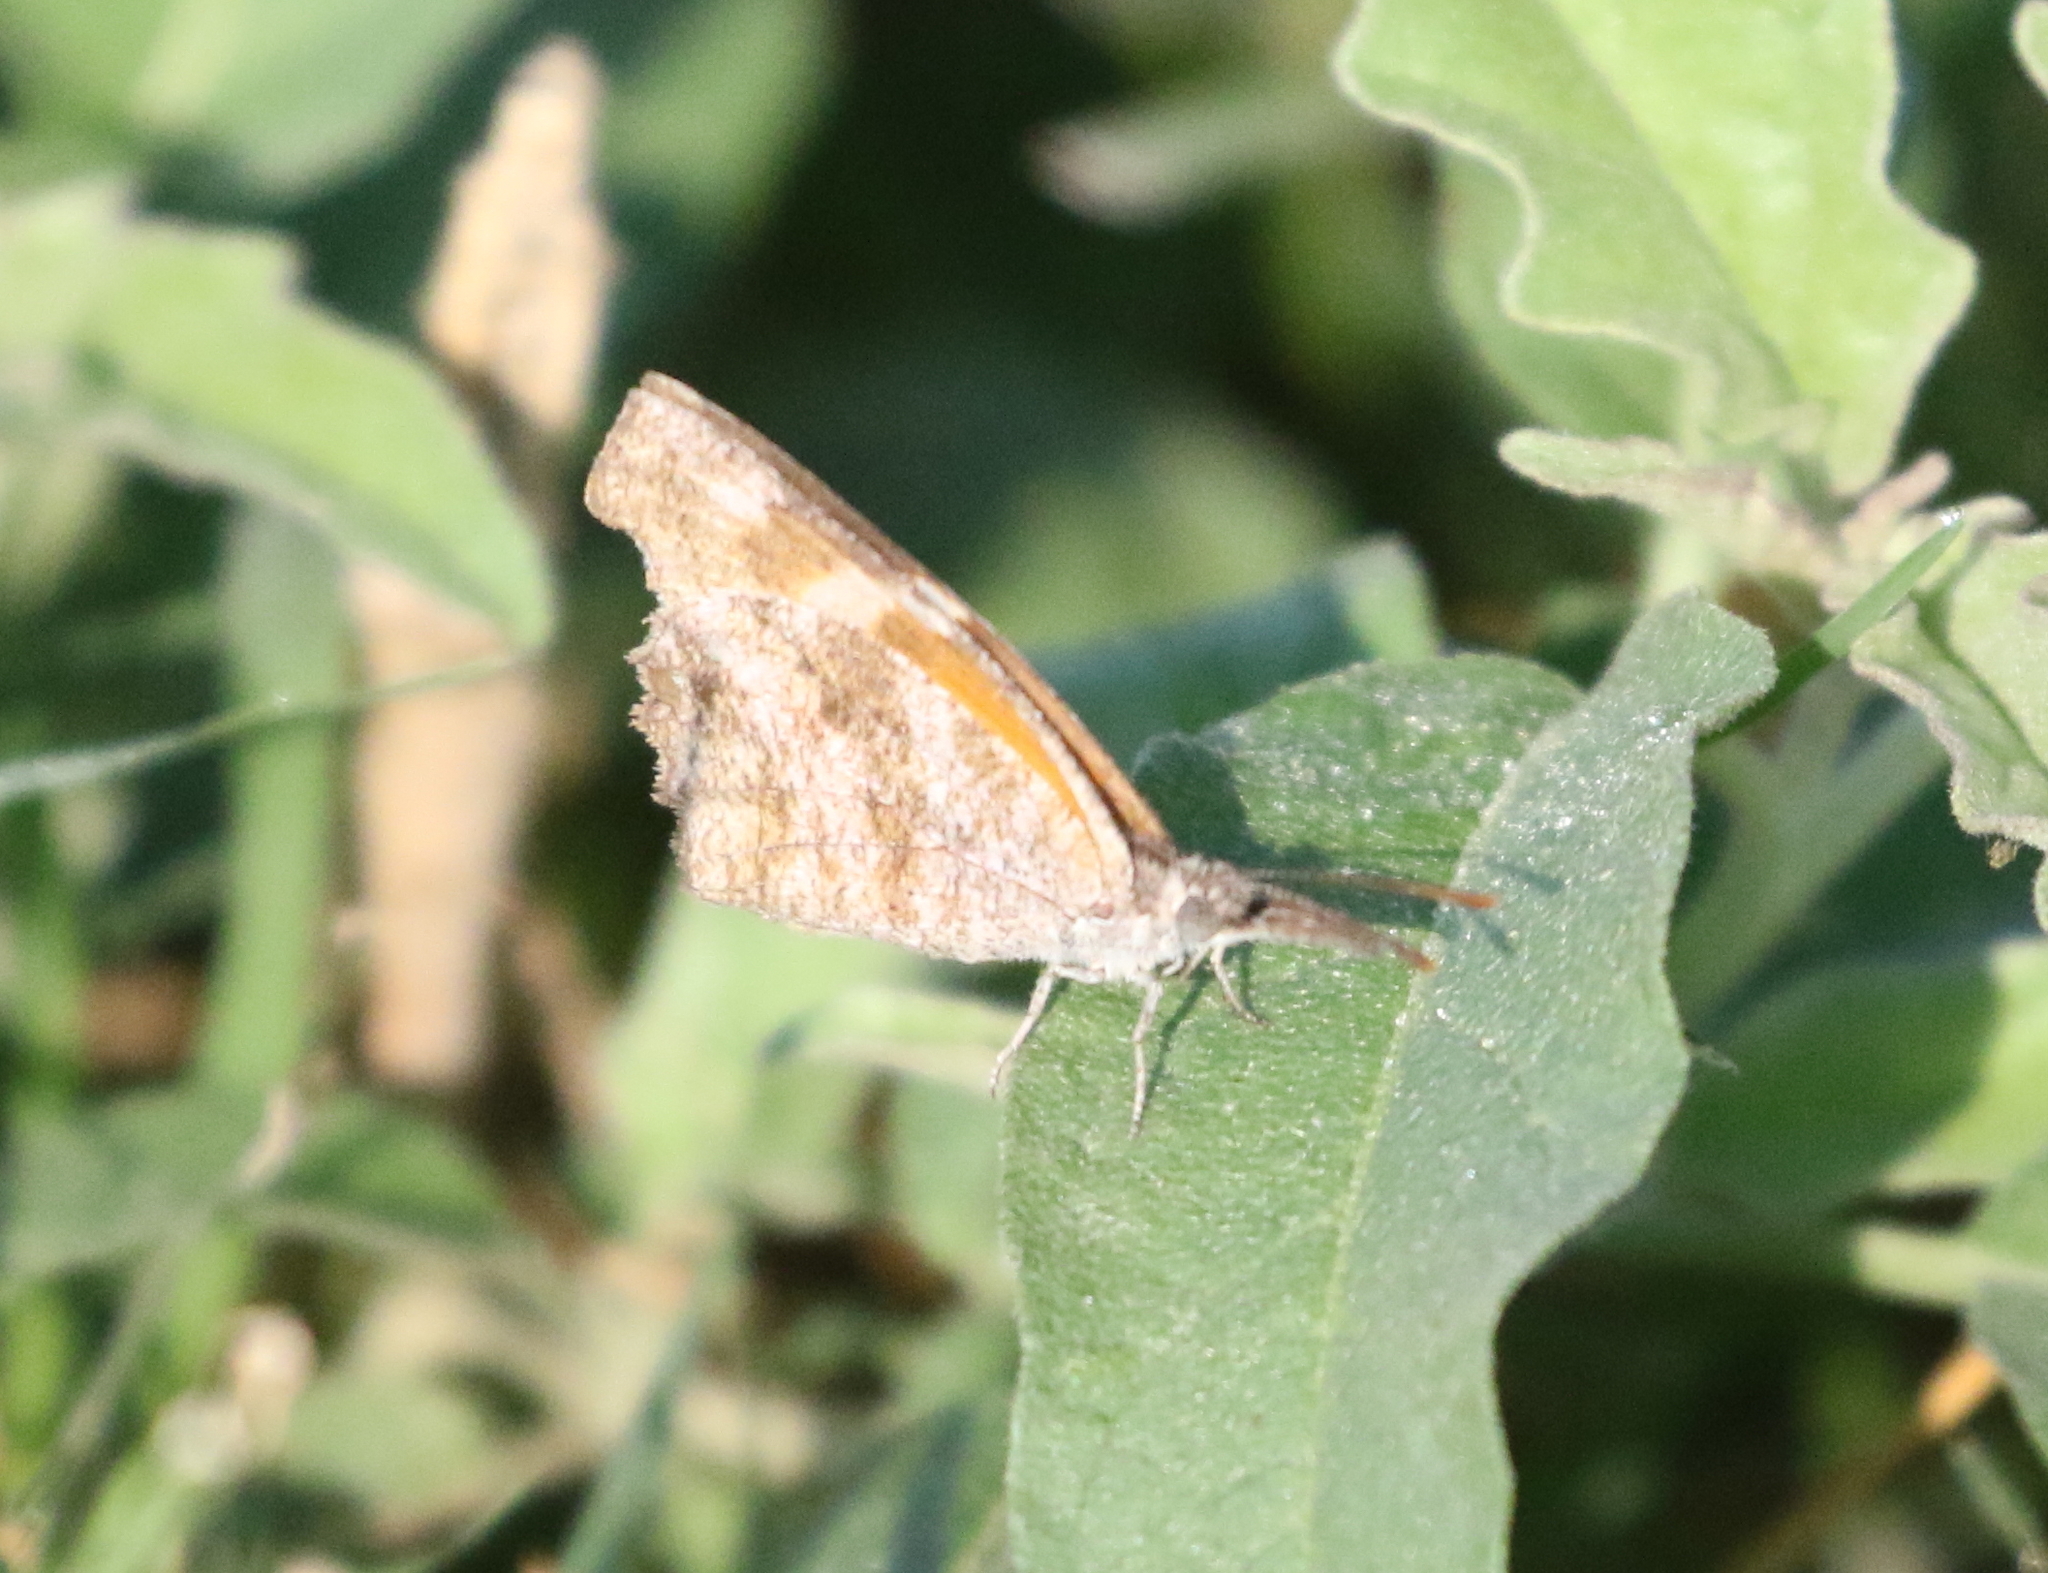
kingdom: Animalia
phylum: Arthropoda
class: Insecta
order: Lepidoptera
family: Nymphalidae
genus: Libytheana
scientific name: Libytheana carinenta
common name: American snout
